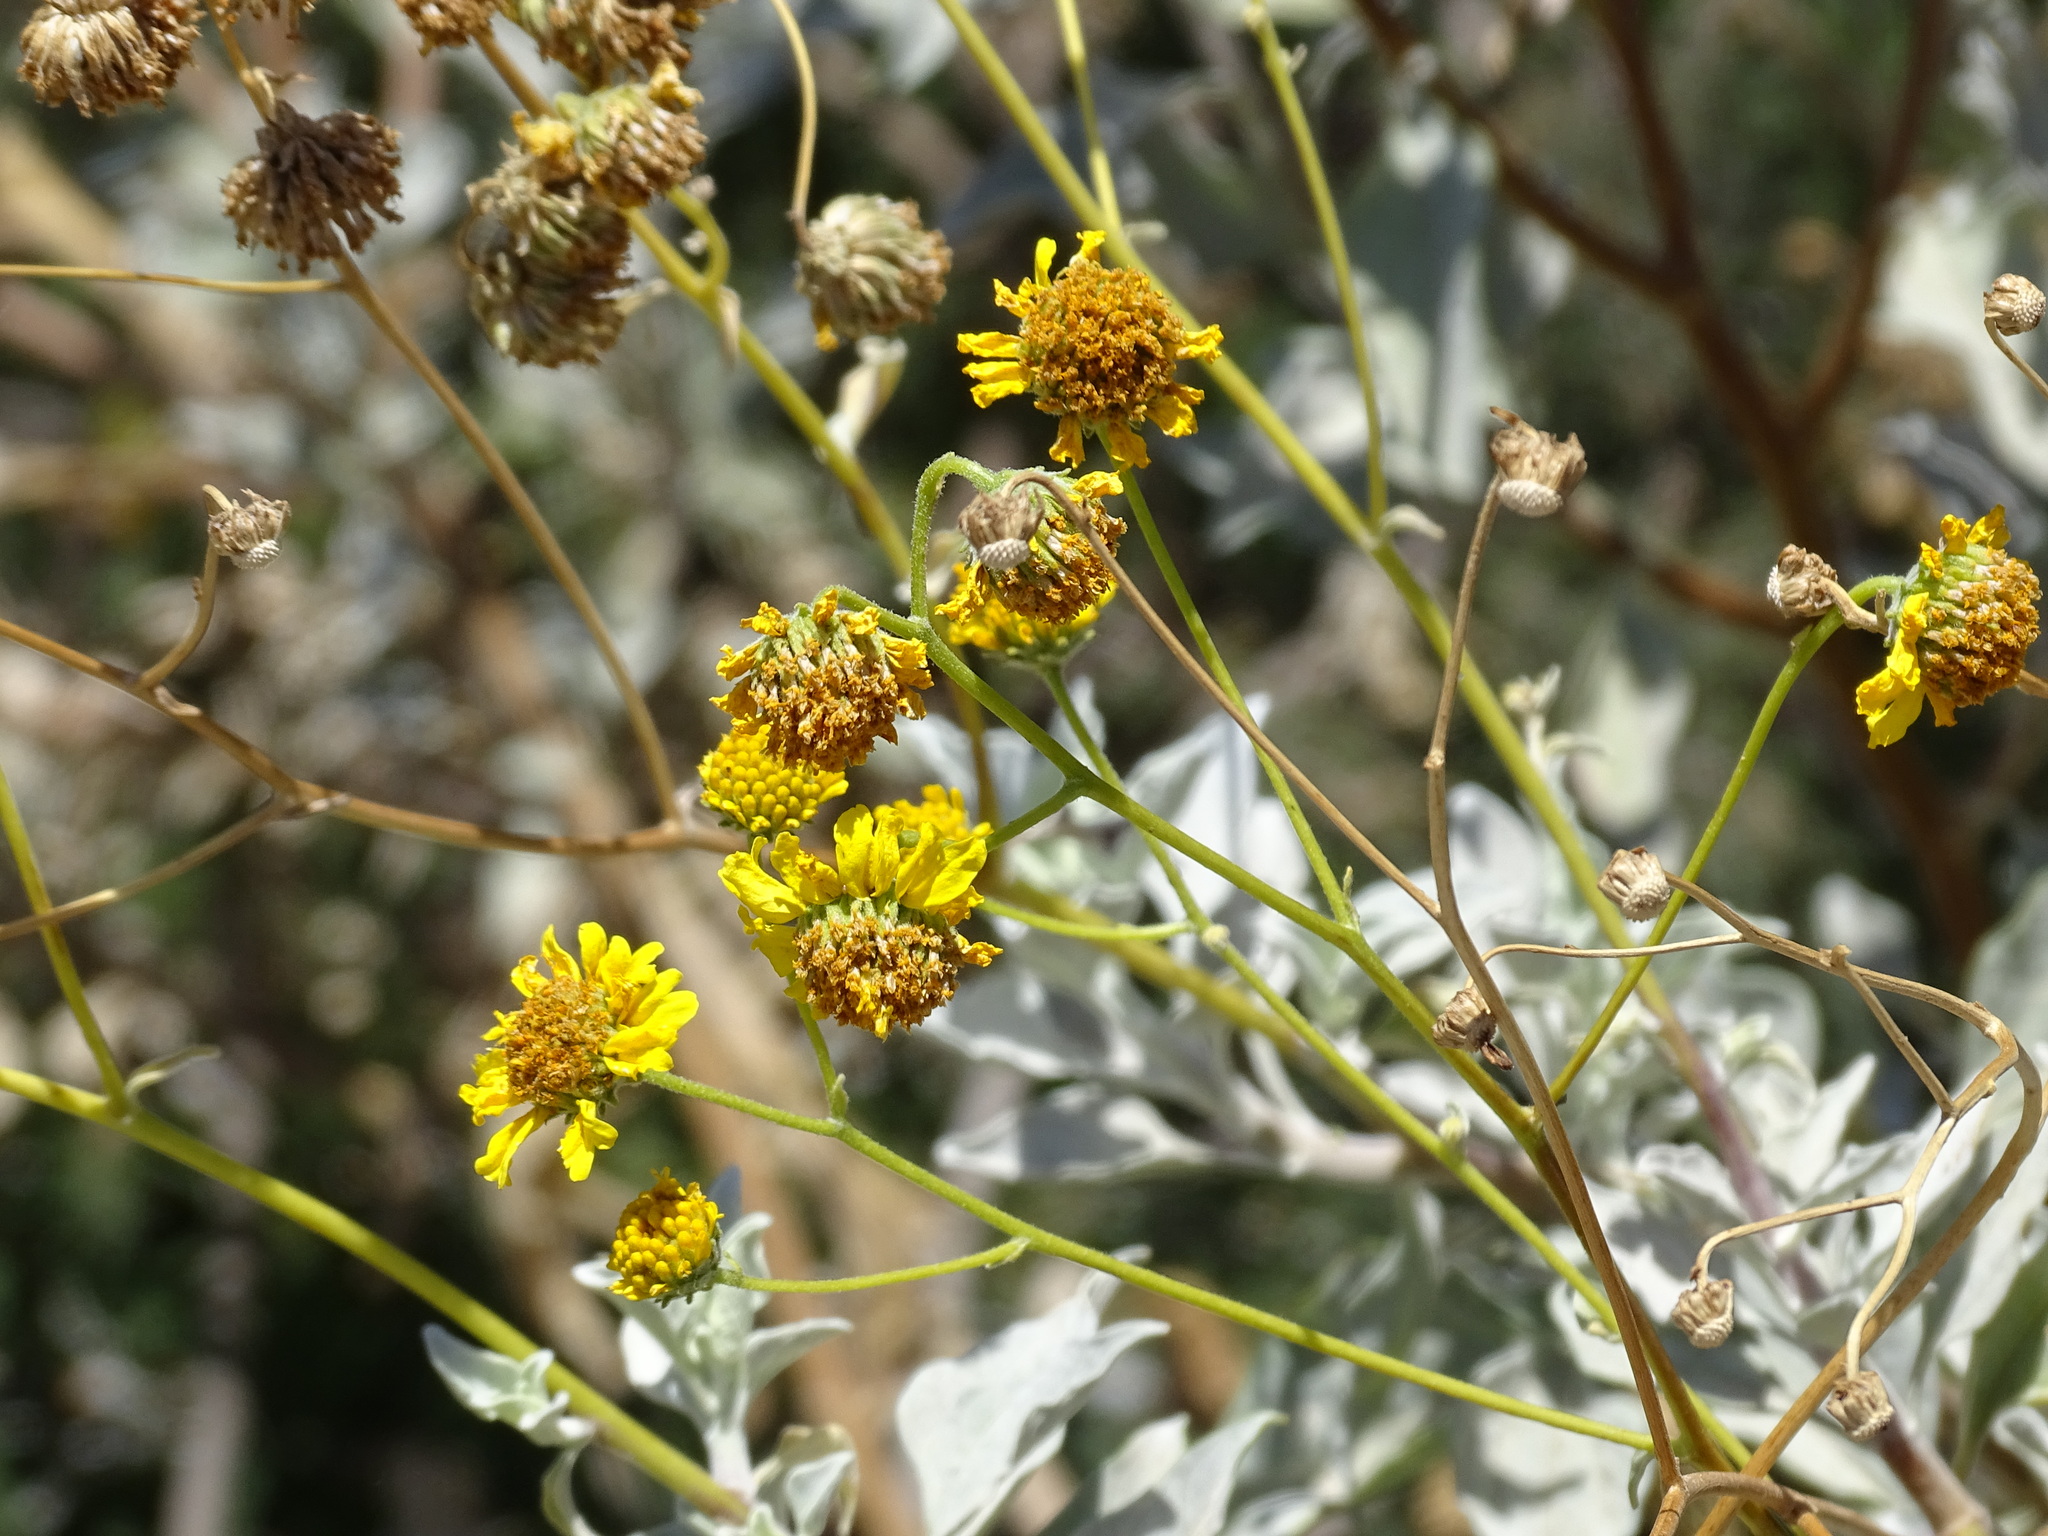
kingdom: Plantae
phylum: Tracheophyta
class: Magnoliopsida
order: Asterales
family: Asteraceae
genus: Encelia
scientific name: Encelia farinosa
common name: Brittlebush
